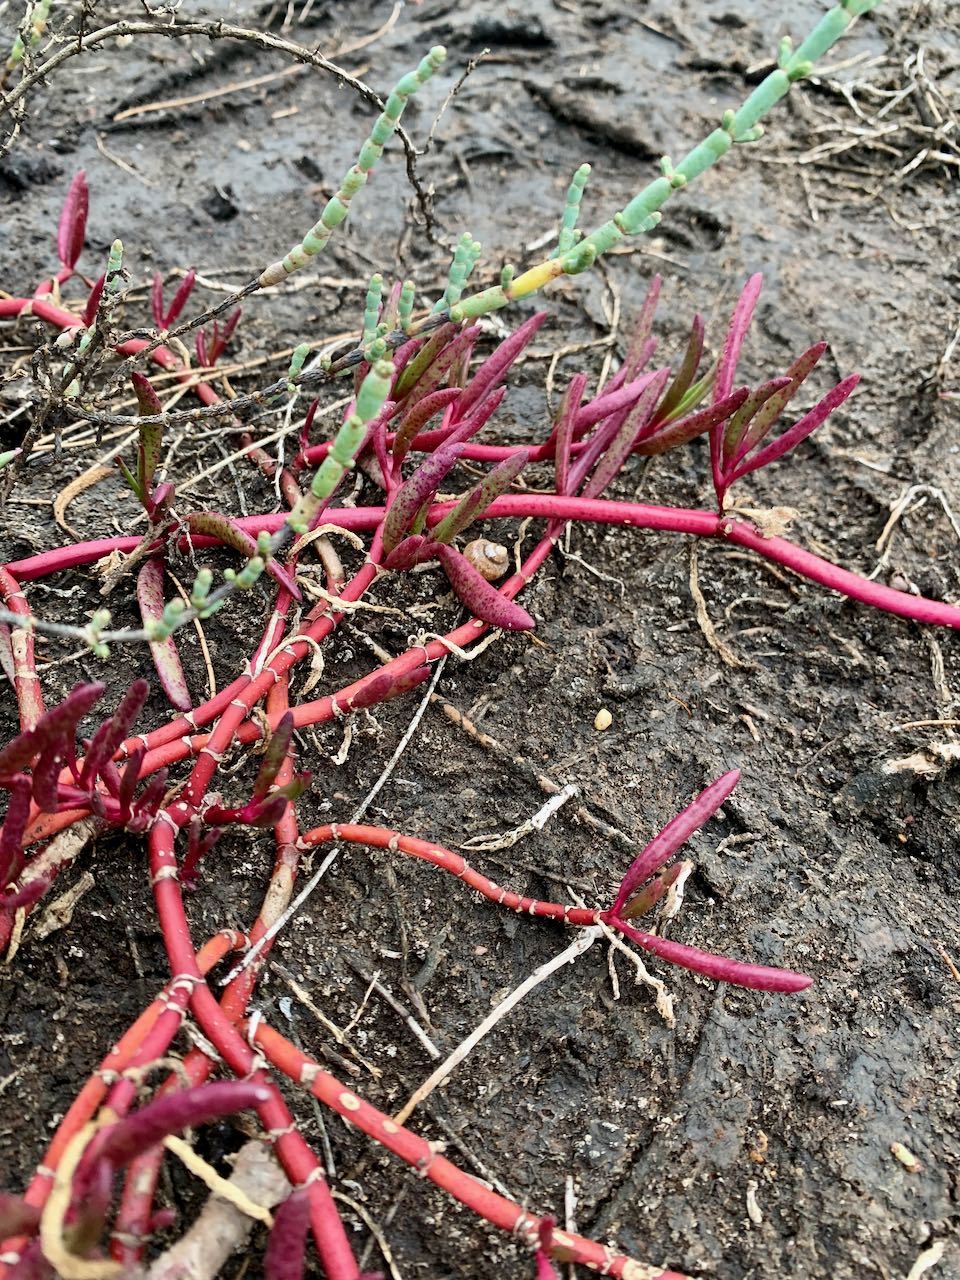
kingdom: Plantae
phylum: Tracheophyta
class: Magnoliopsida
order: Caryophyllales
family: Aizoaceae
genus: Sesuvium
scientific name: Sesuvium portulacastrum
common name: Sea-purslane
